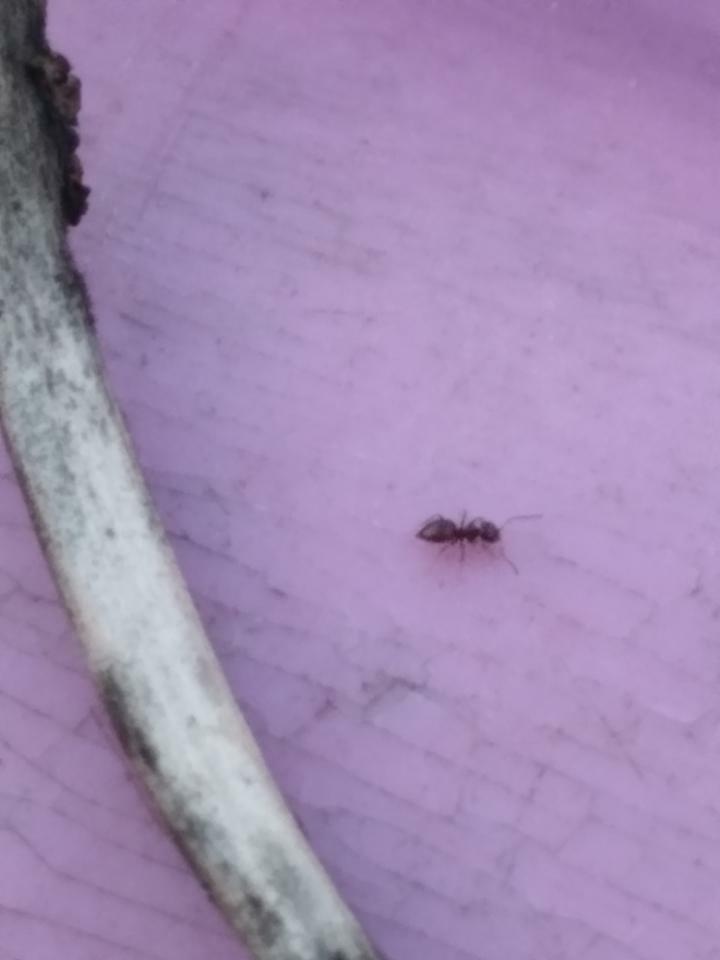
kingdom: Animalia
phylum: Arthropoda
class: Insecta
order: Hymenoptera
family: Formicidae
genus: Brachymyrmex
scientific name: Brachymyrmex patagonicus
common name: Dark rover ant
